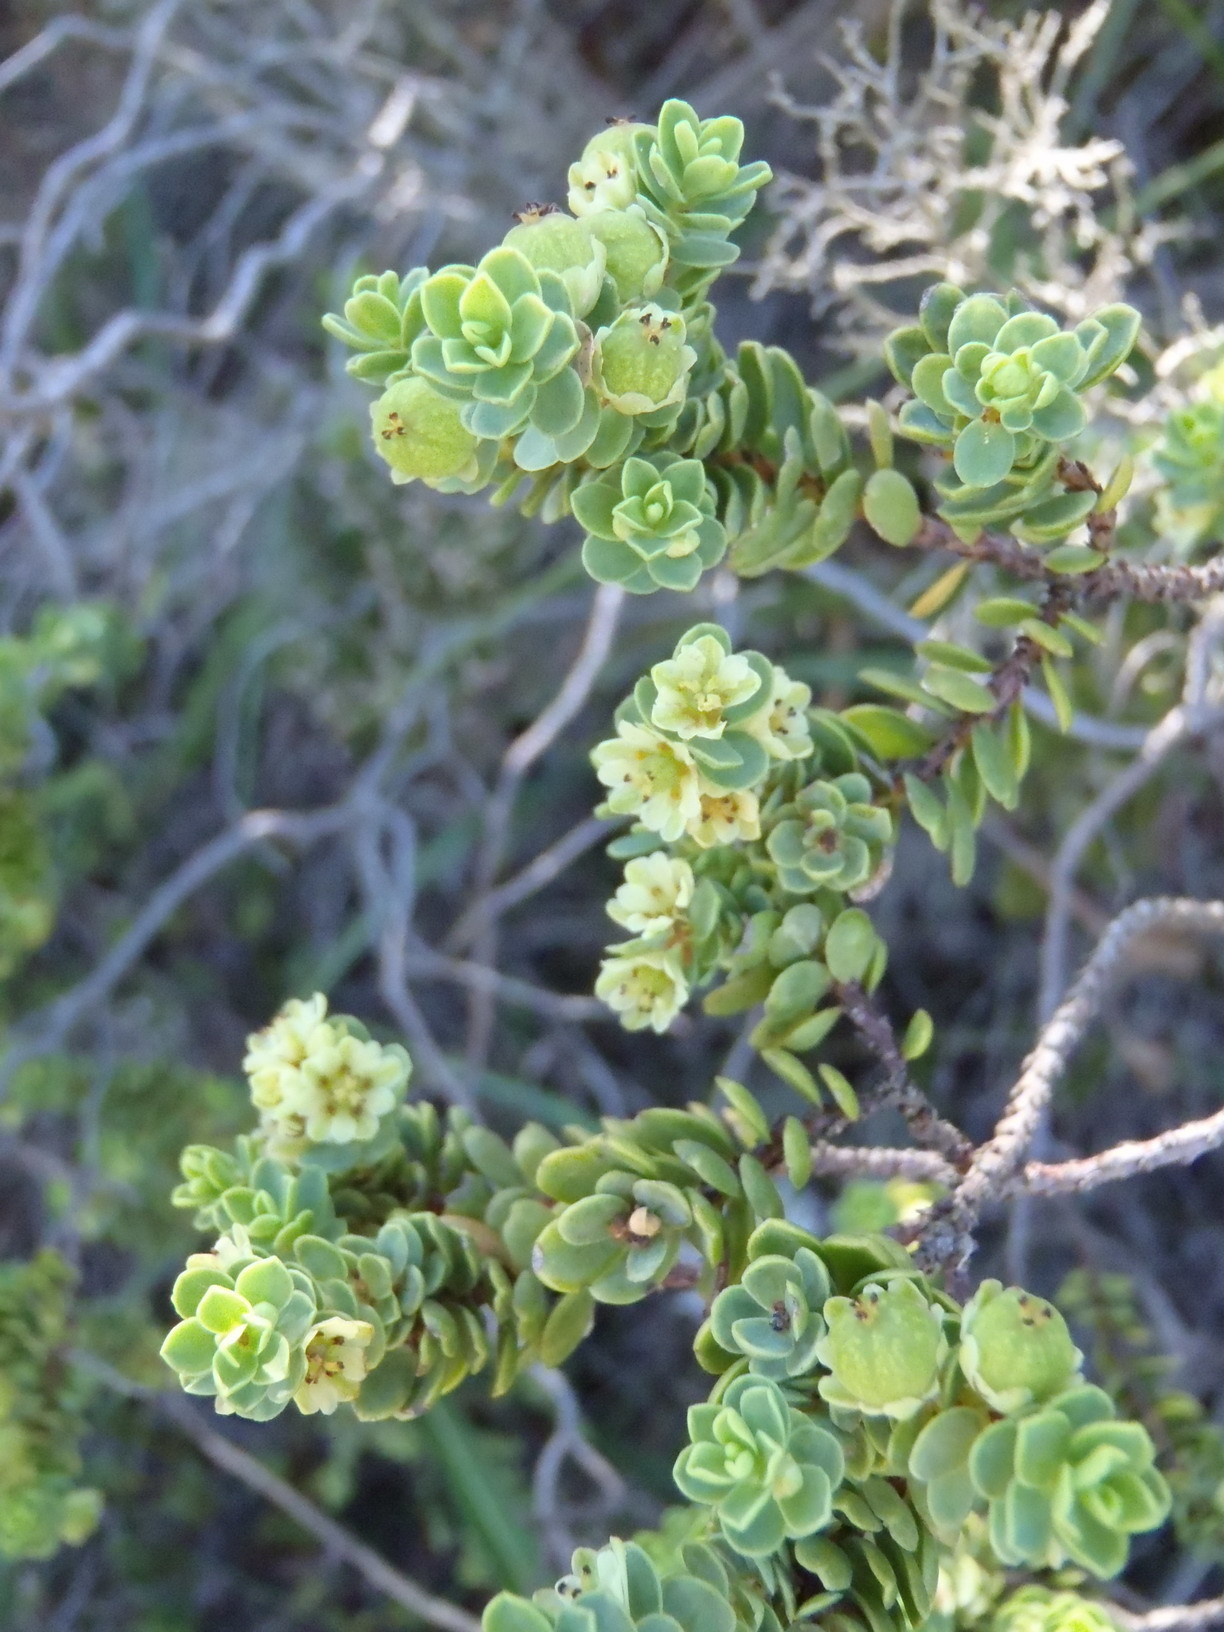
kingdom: Plantae
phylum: Tracheophyta
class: Magnoliopsida
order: Malpighiales
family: Peraceae
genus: Clutia
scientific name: Clutia alaternoides
